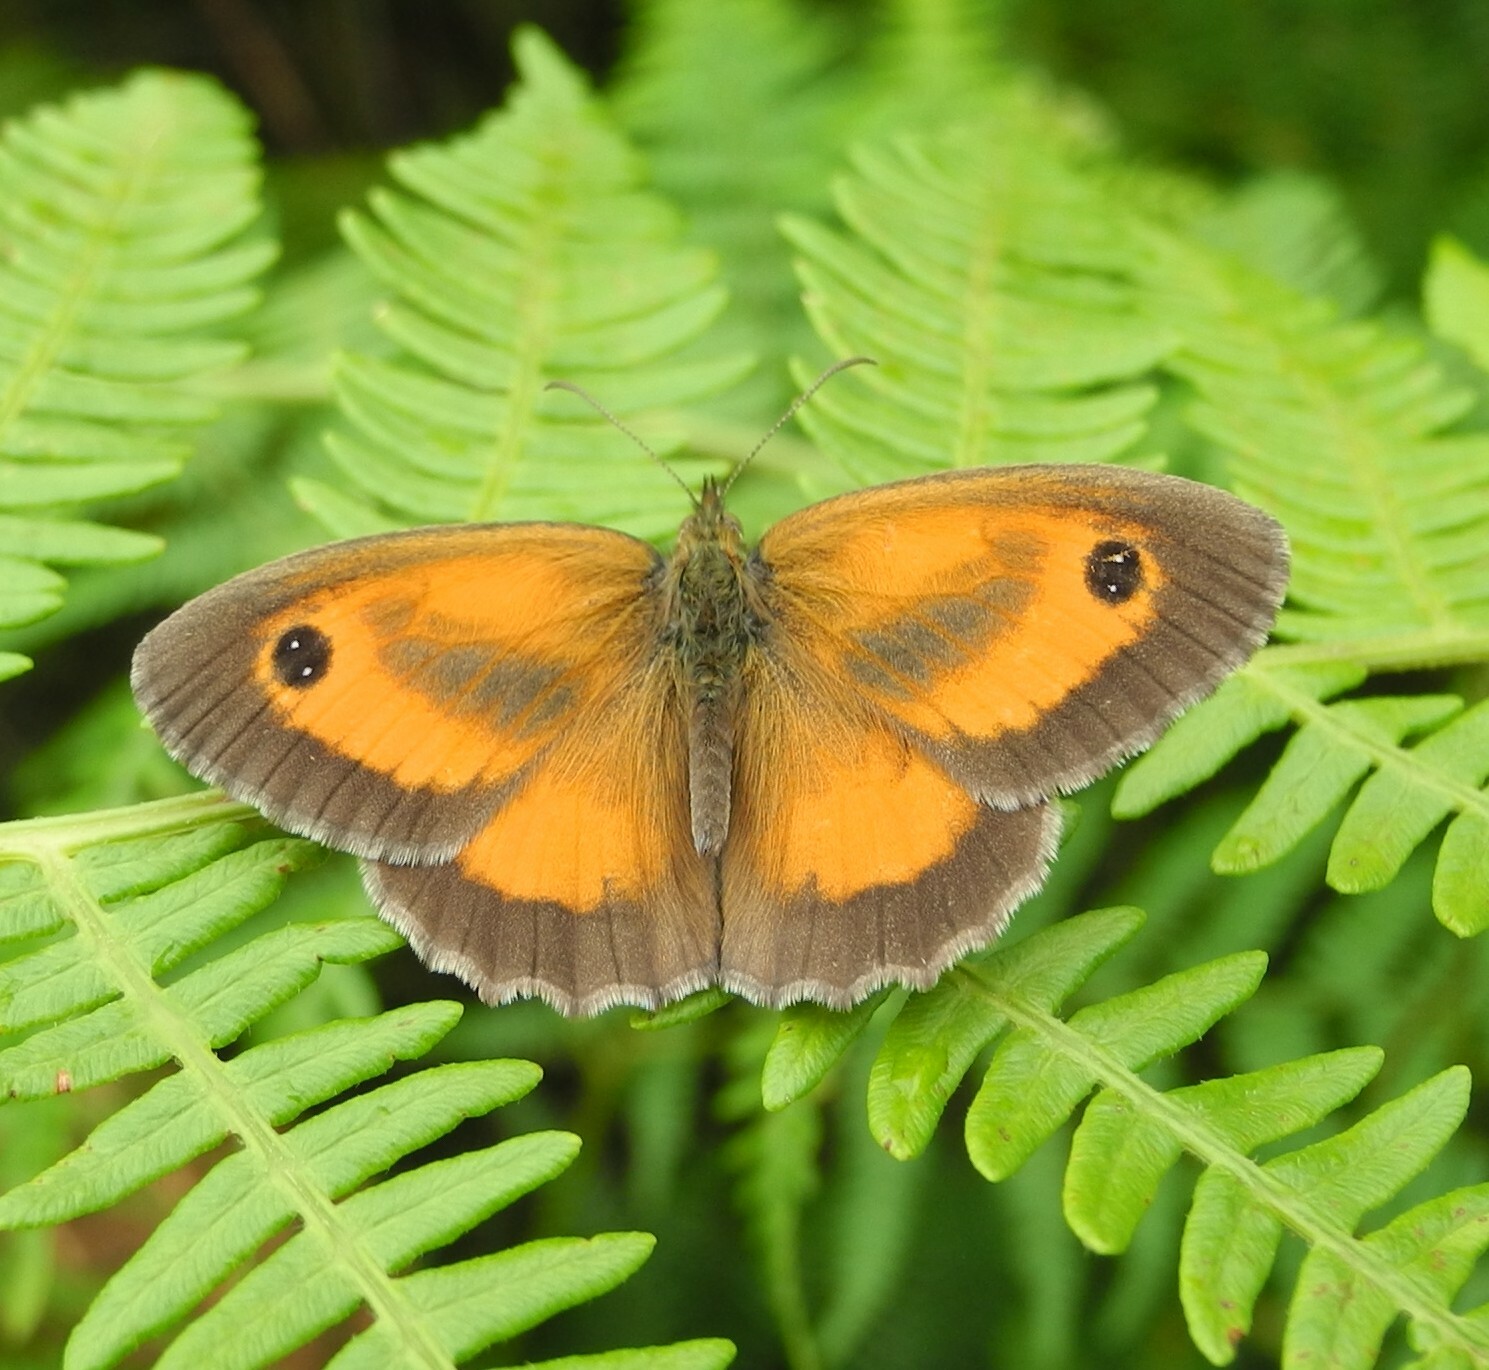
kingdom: Animalia
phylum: Arthropoda
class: Insecta
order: Lepidoptera
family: Nymphalidae
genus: Pyronia
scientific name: Pyronia tithonus
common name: Gatekeeper
